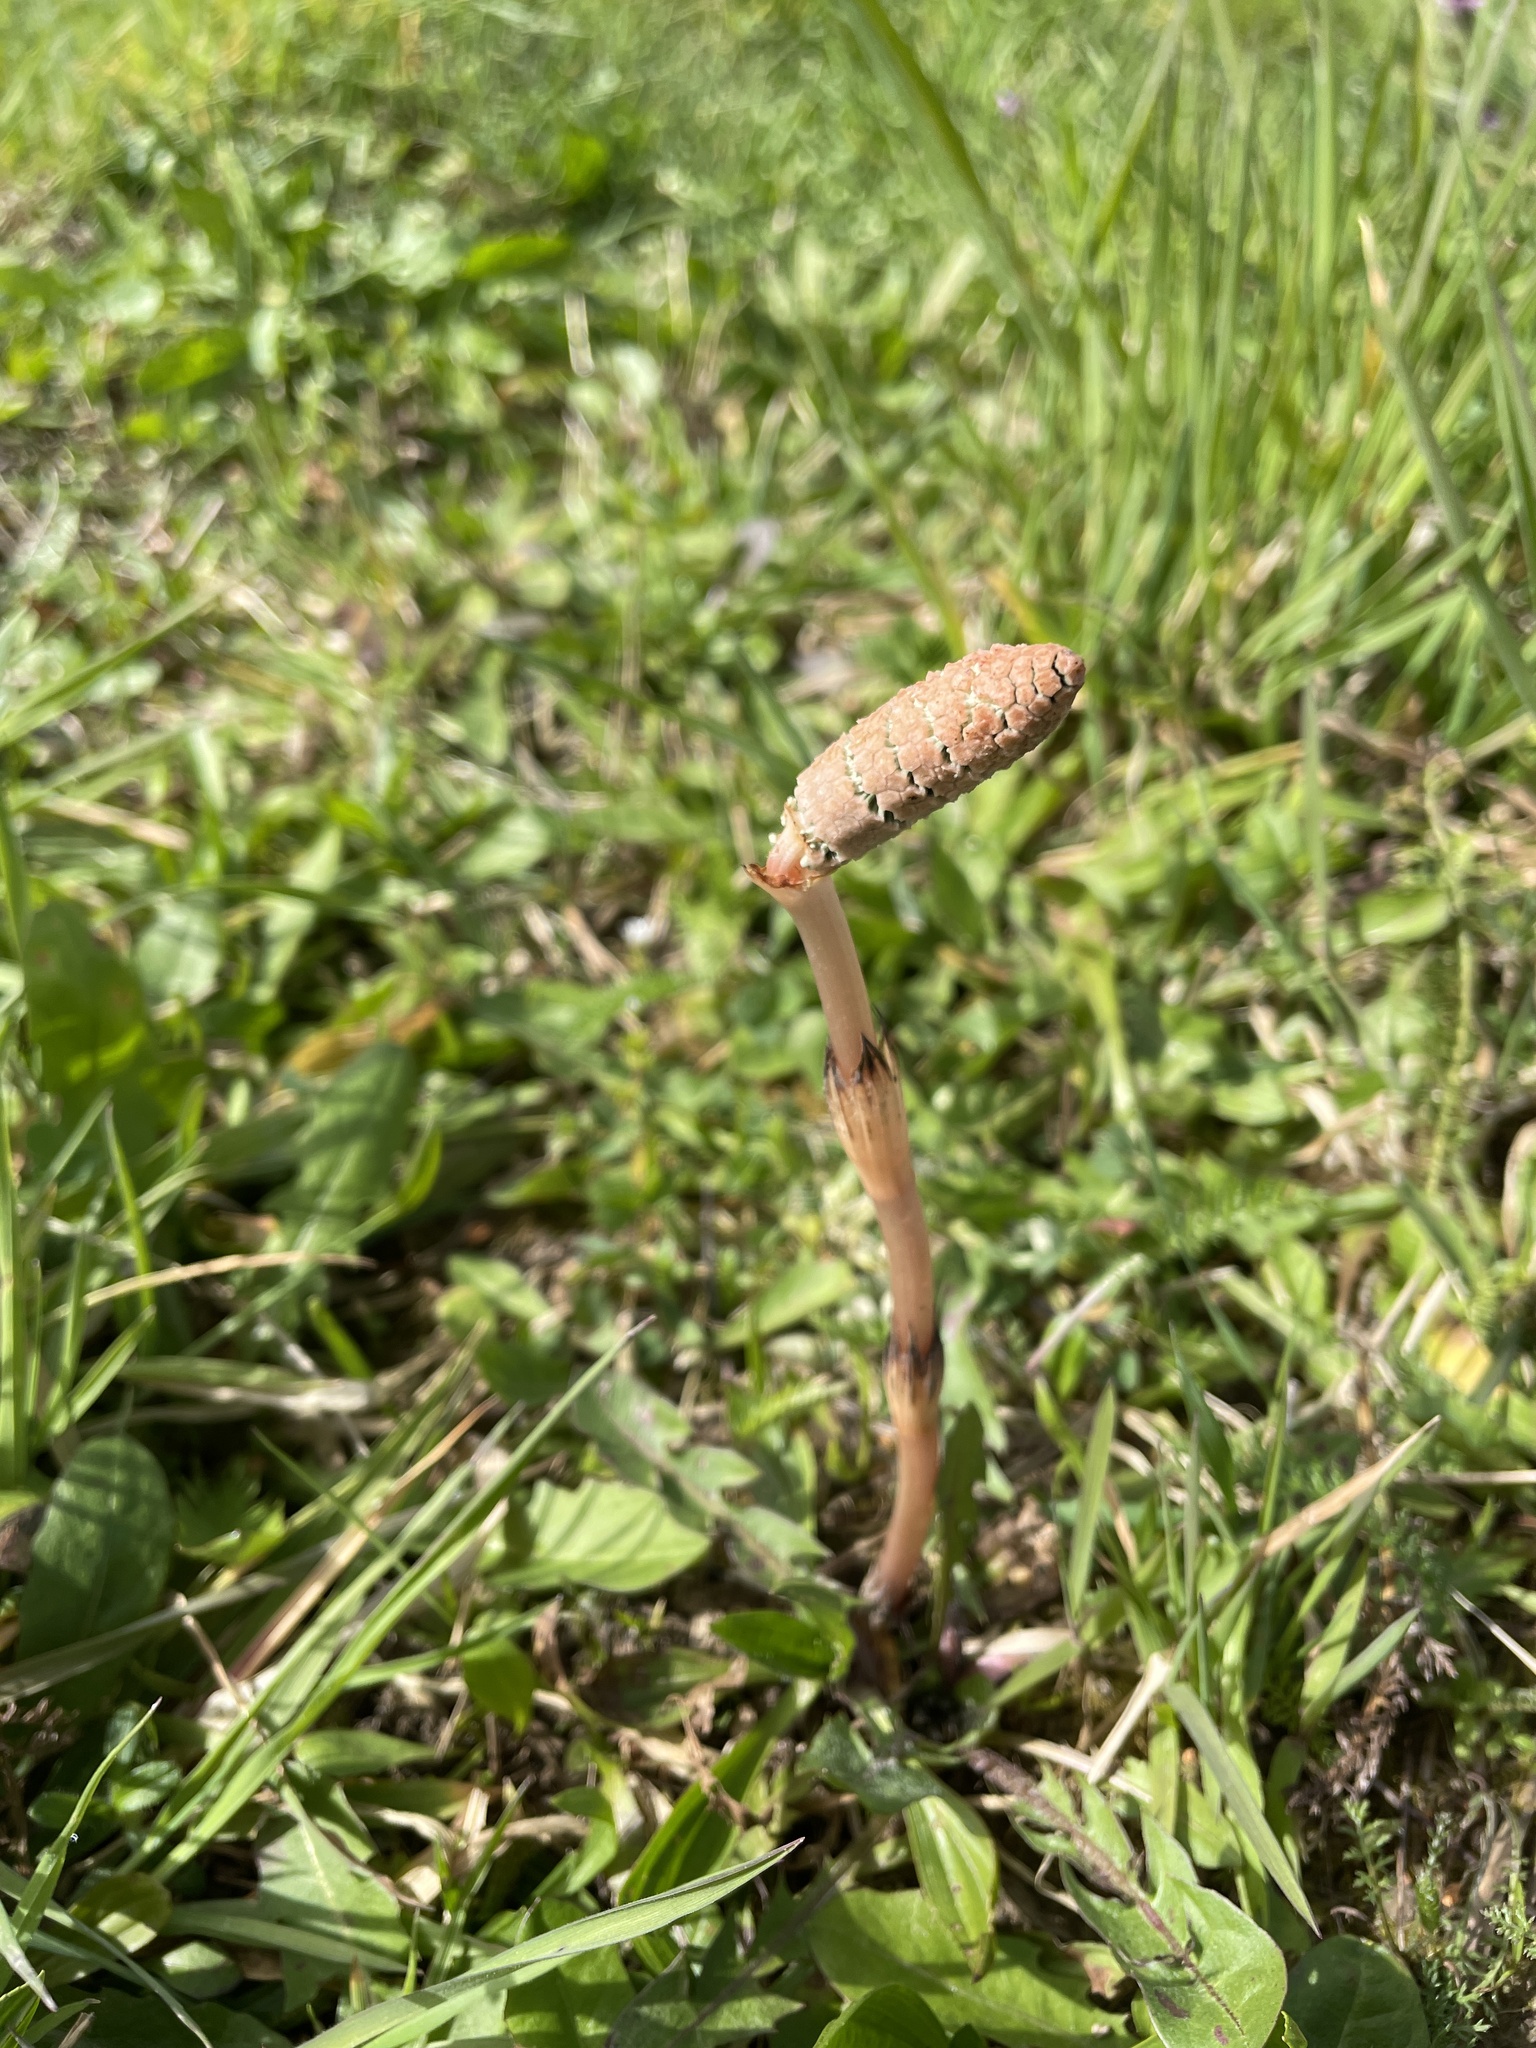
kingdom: Plantae
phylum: Tracheophyta
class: Polypodiopsida
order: Equisetales
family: Equisetaceae
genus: Equisetum
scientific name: Equisetum arvense
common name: Field horsetail
